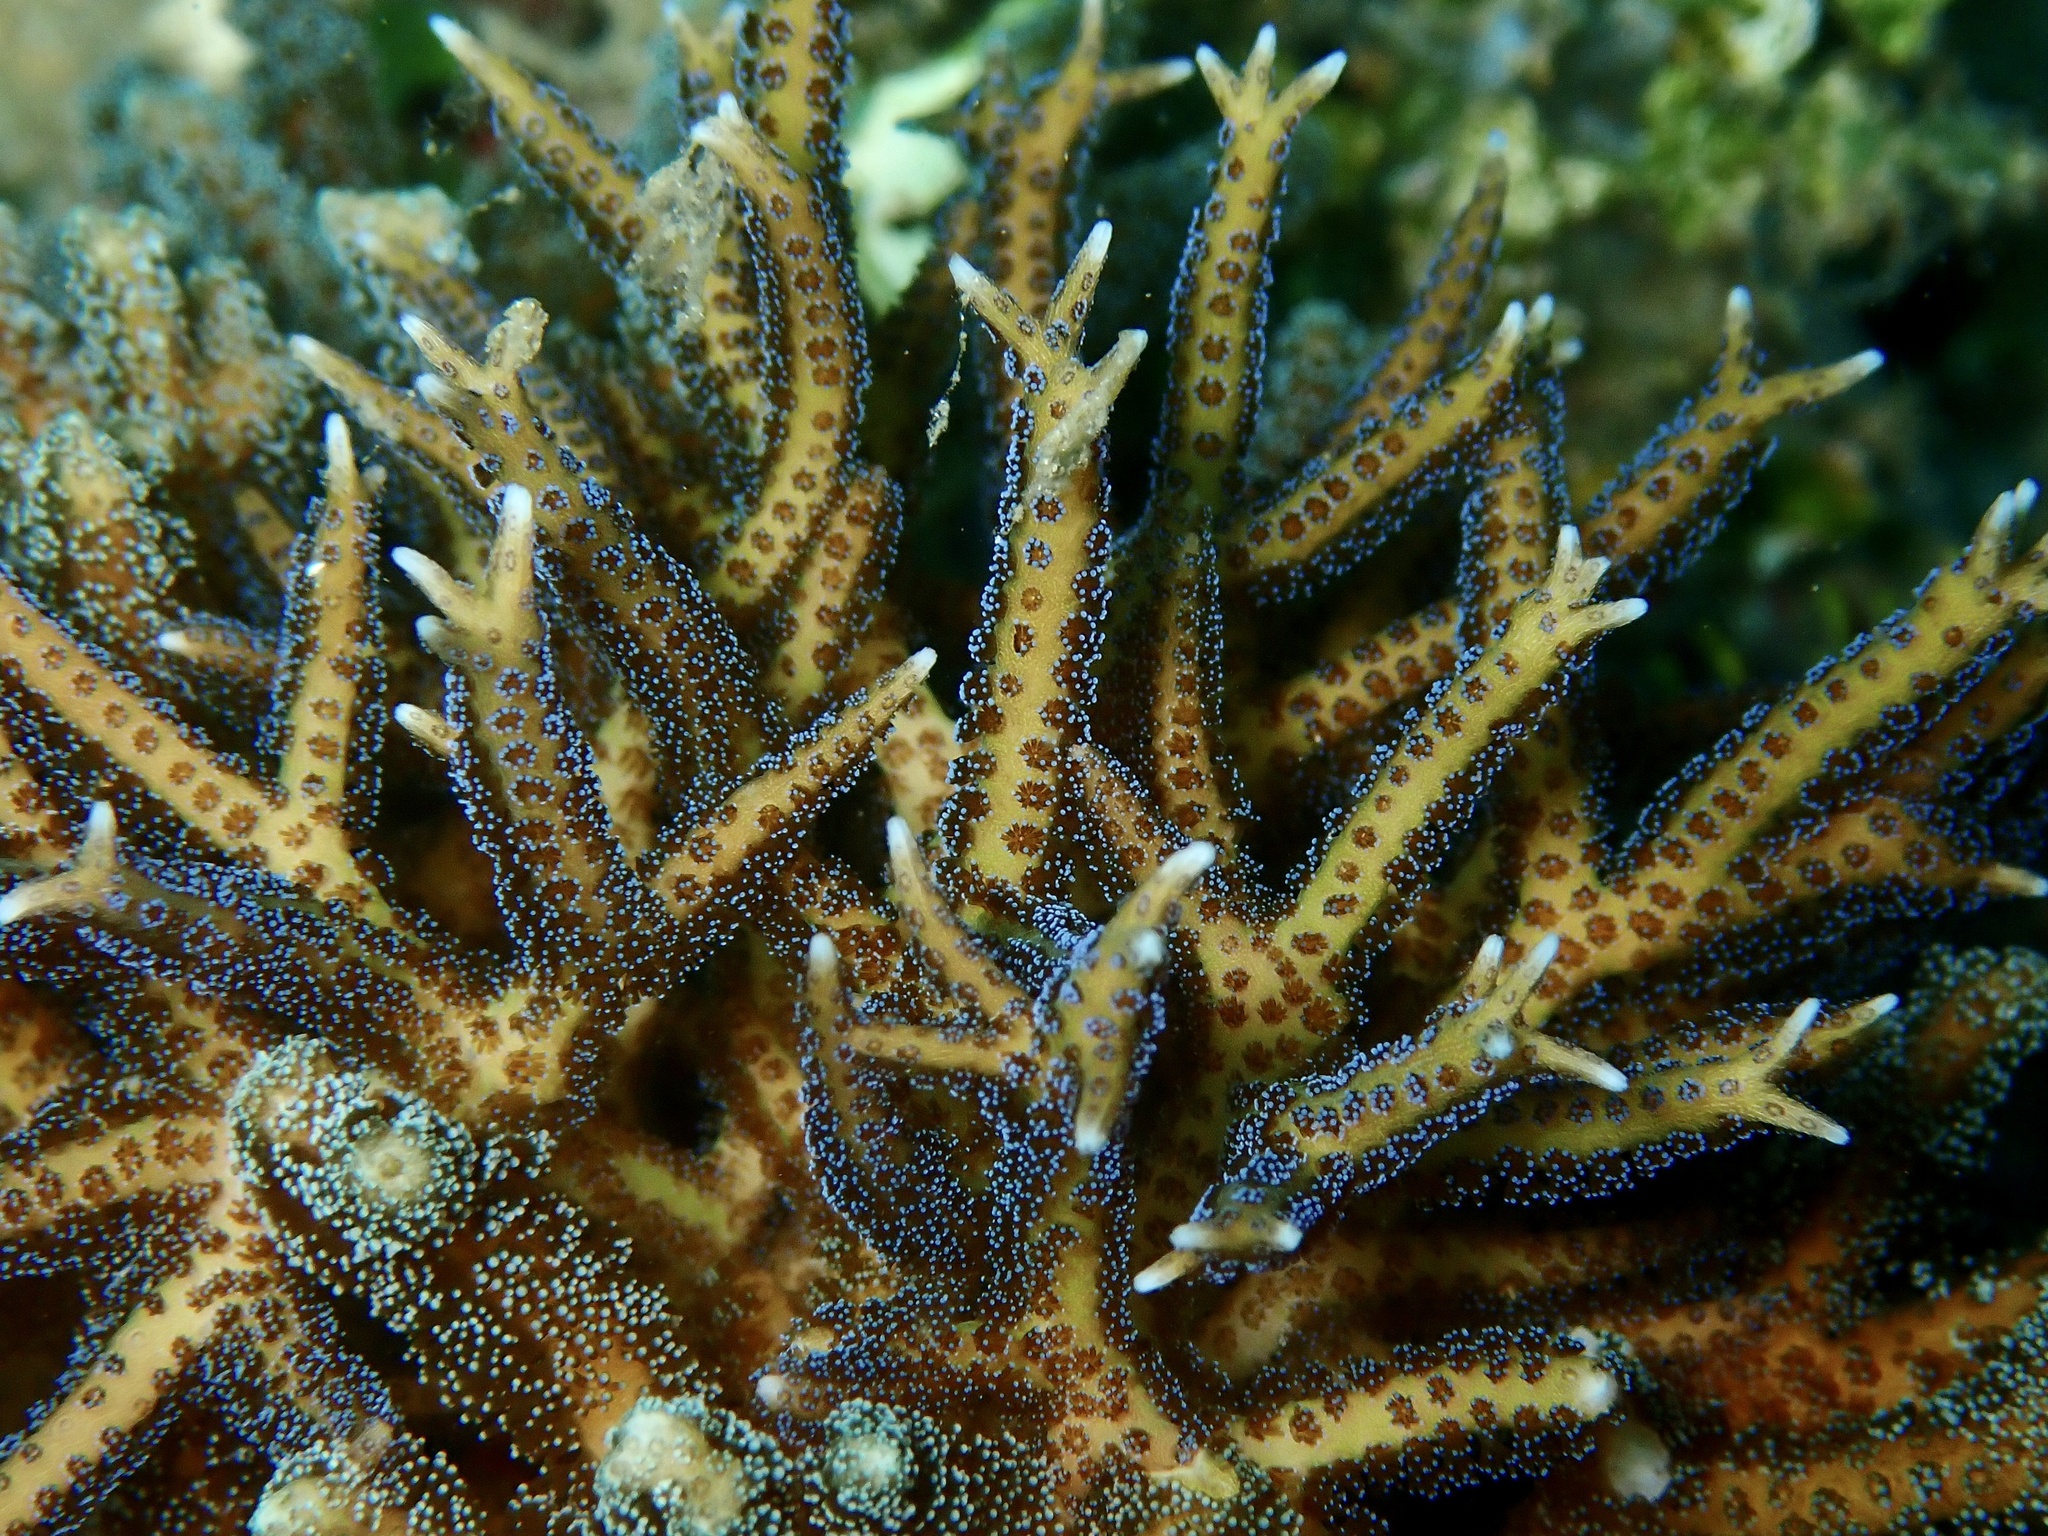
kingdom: Animalia
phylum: Cnidaria
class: Anthozoa
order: Scleractinia
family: Pocilloporidae
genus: Seriatopora
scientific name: Seriatopora hystrix
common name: Bush coral
